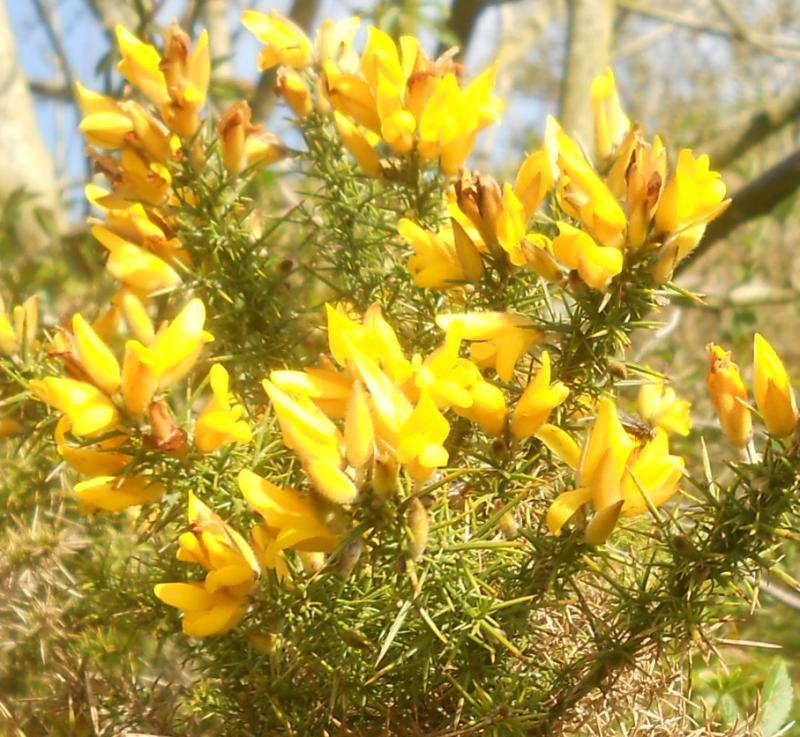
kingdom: Plantae
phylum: Tracheophyta
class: Magnoliopsida
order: Fabales
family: Fabaceae
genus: Ulex
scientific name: Ulex europaeus
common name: Common gorse
